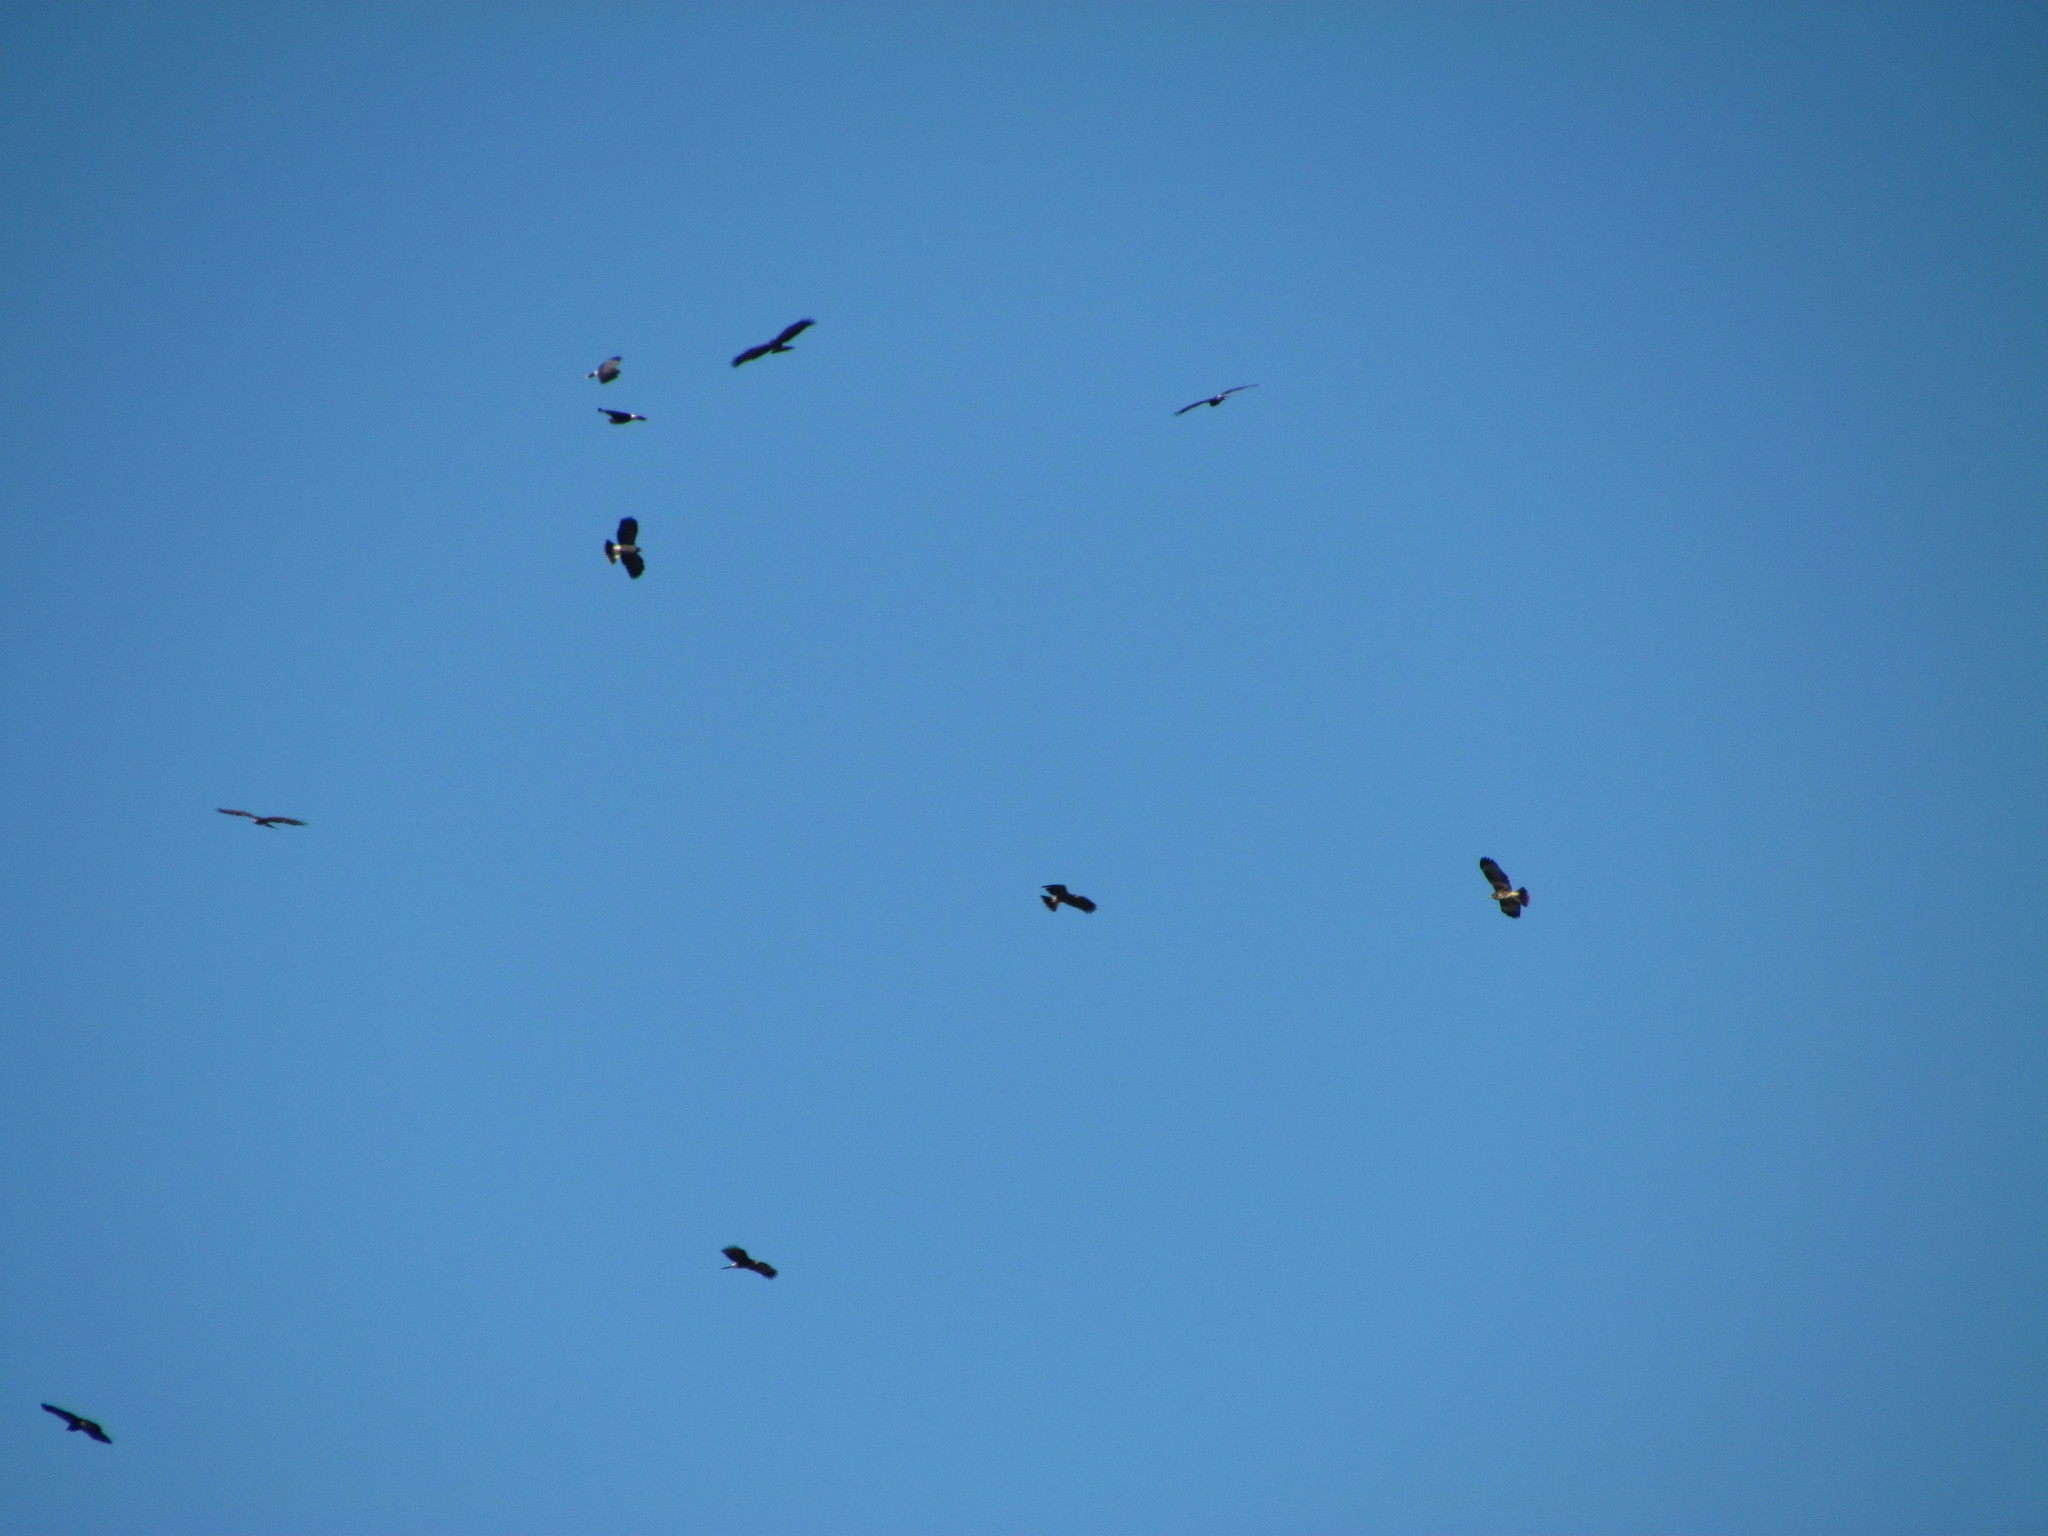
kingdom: Animalia
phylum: Chordata
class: Aves
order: Accipitriformes
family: Accipitridae
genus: Rostrhamus
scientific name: Rostrhamus sociabilis
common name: Snail kite
